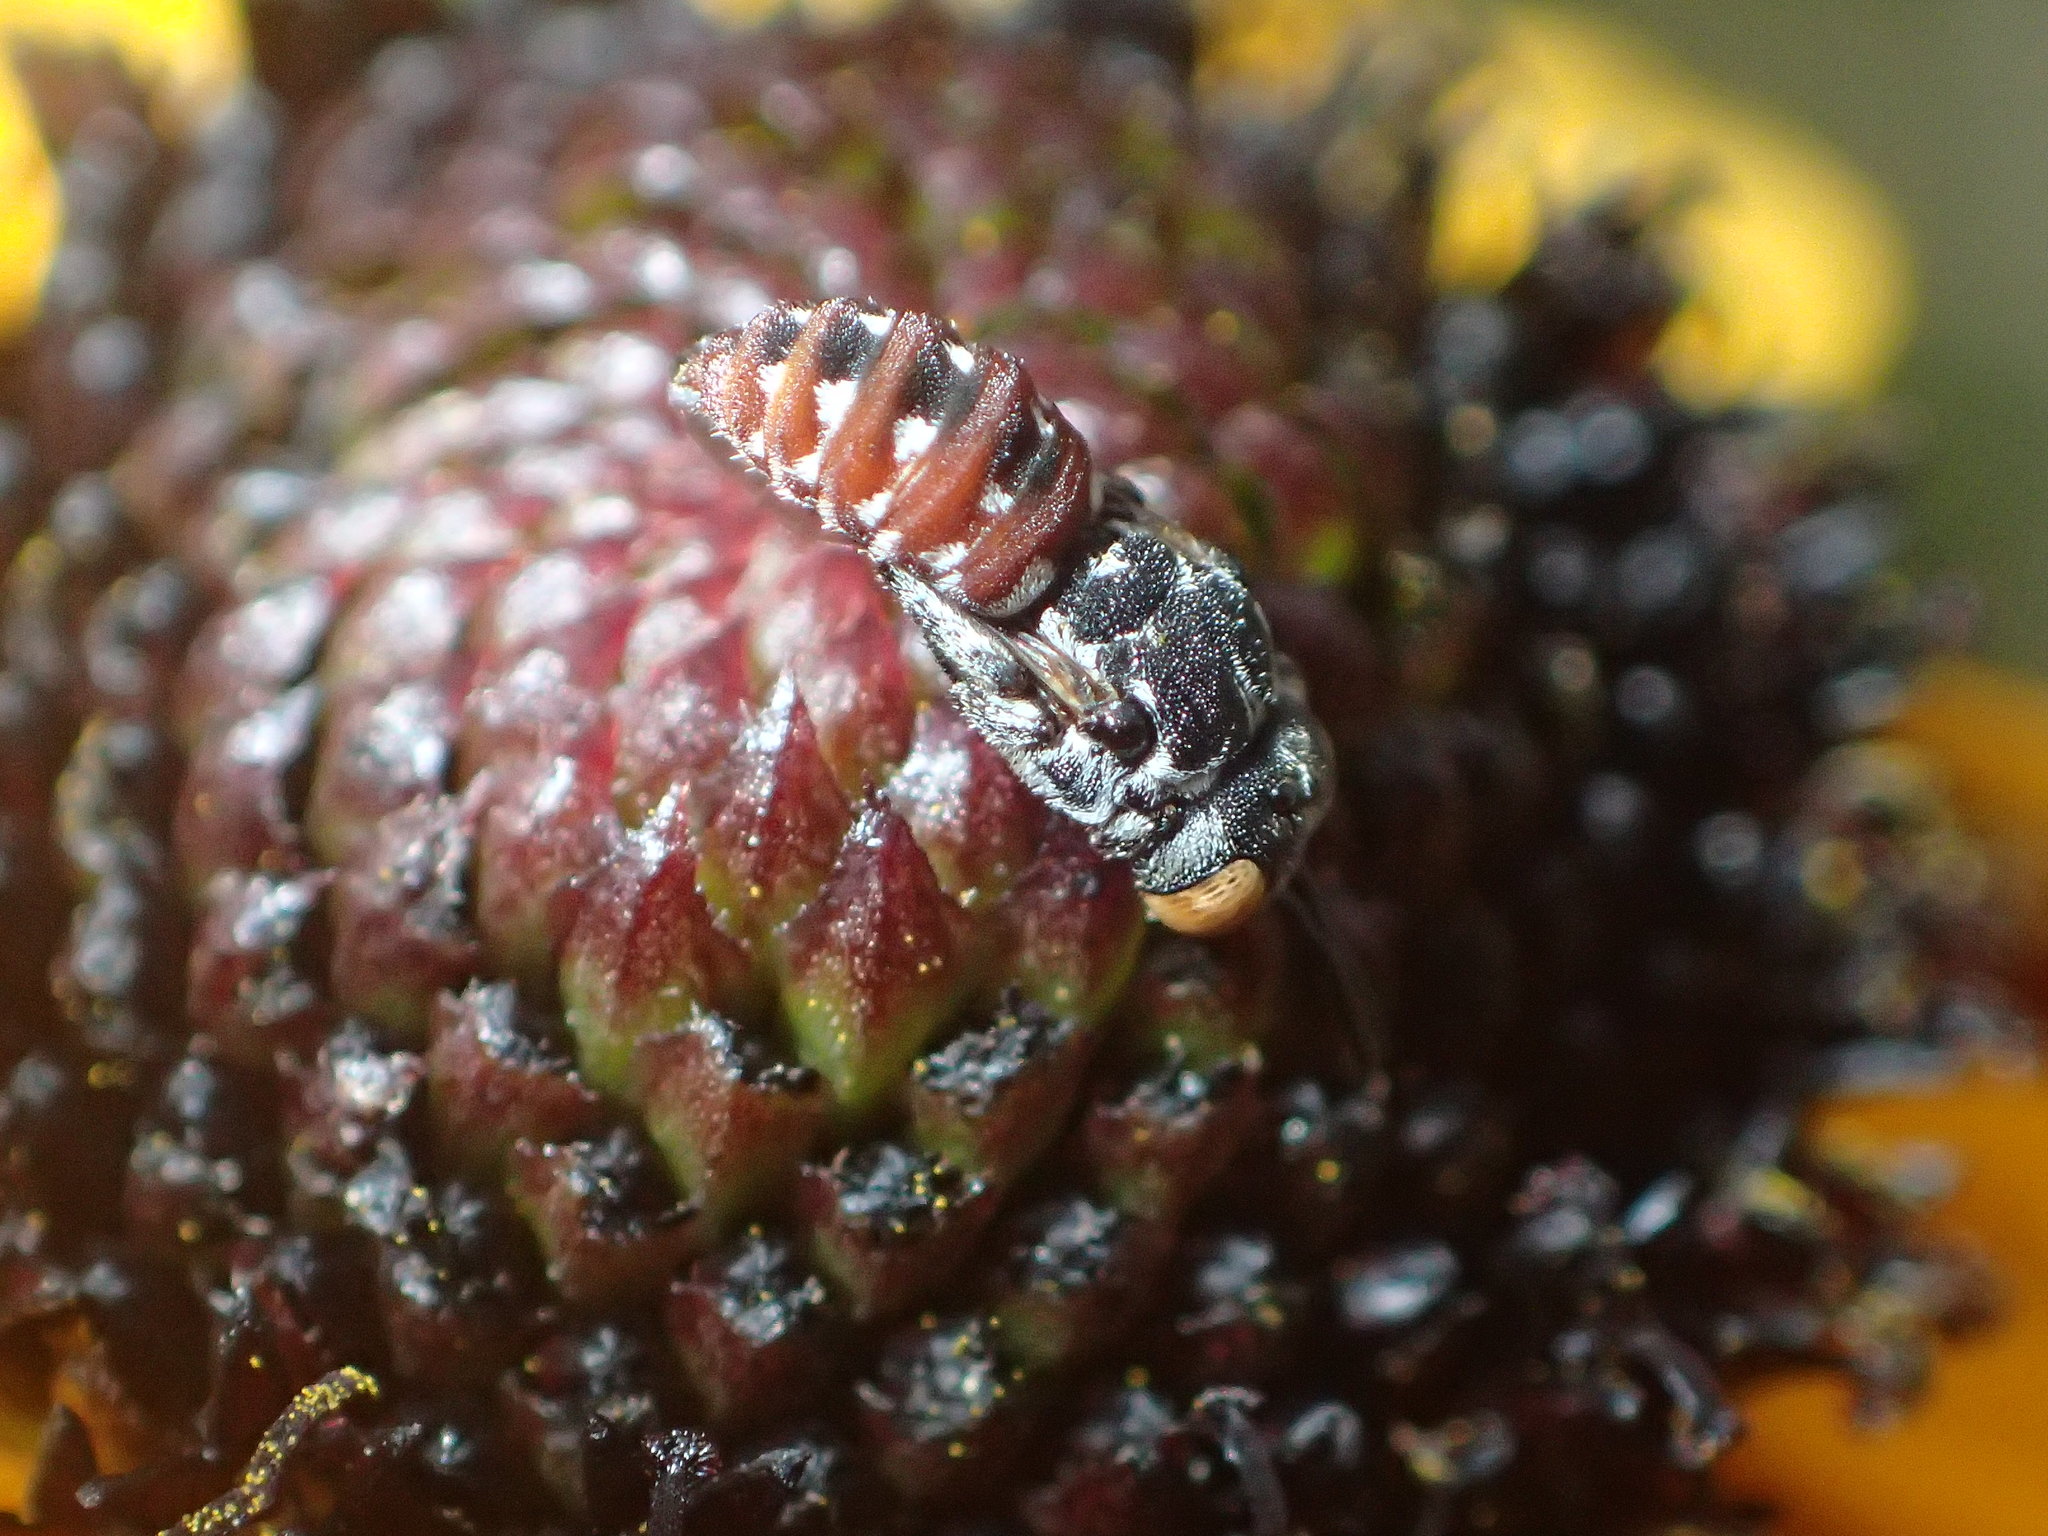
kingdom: Animalia
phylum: Arthropoda
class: Insecta
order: Hymenoptera
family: Apidae
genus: Holcopasites
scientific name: Holcopasites calliopsidis
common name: Calliopsis cuckoo nomad bee
